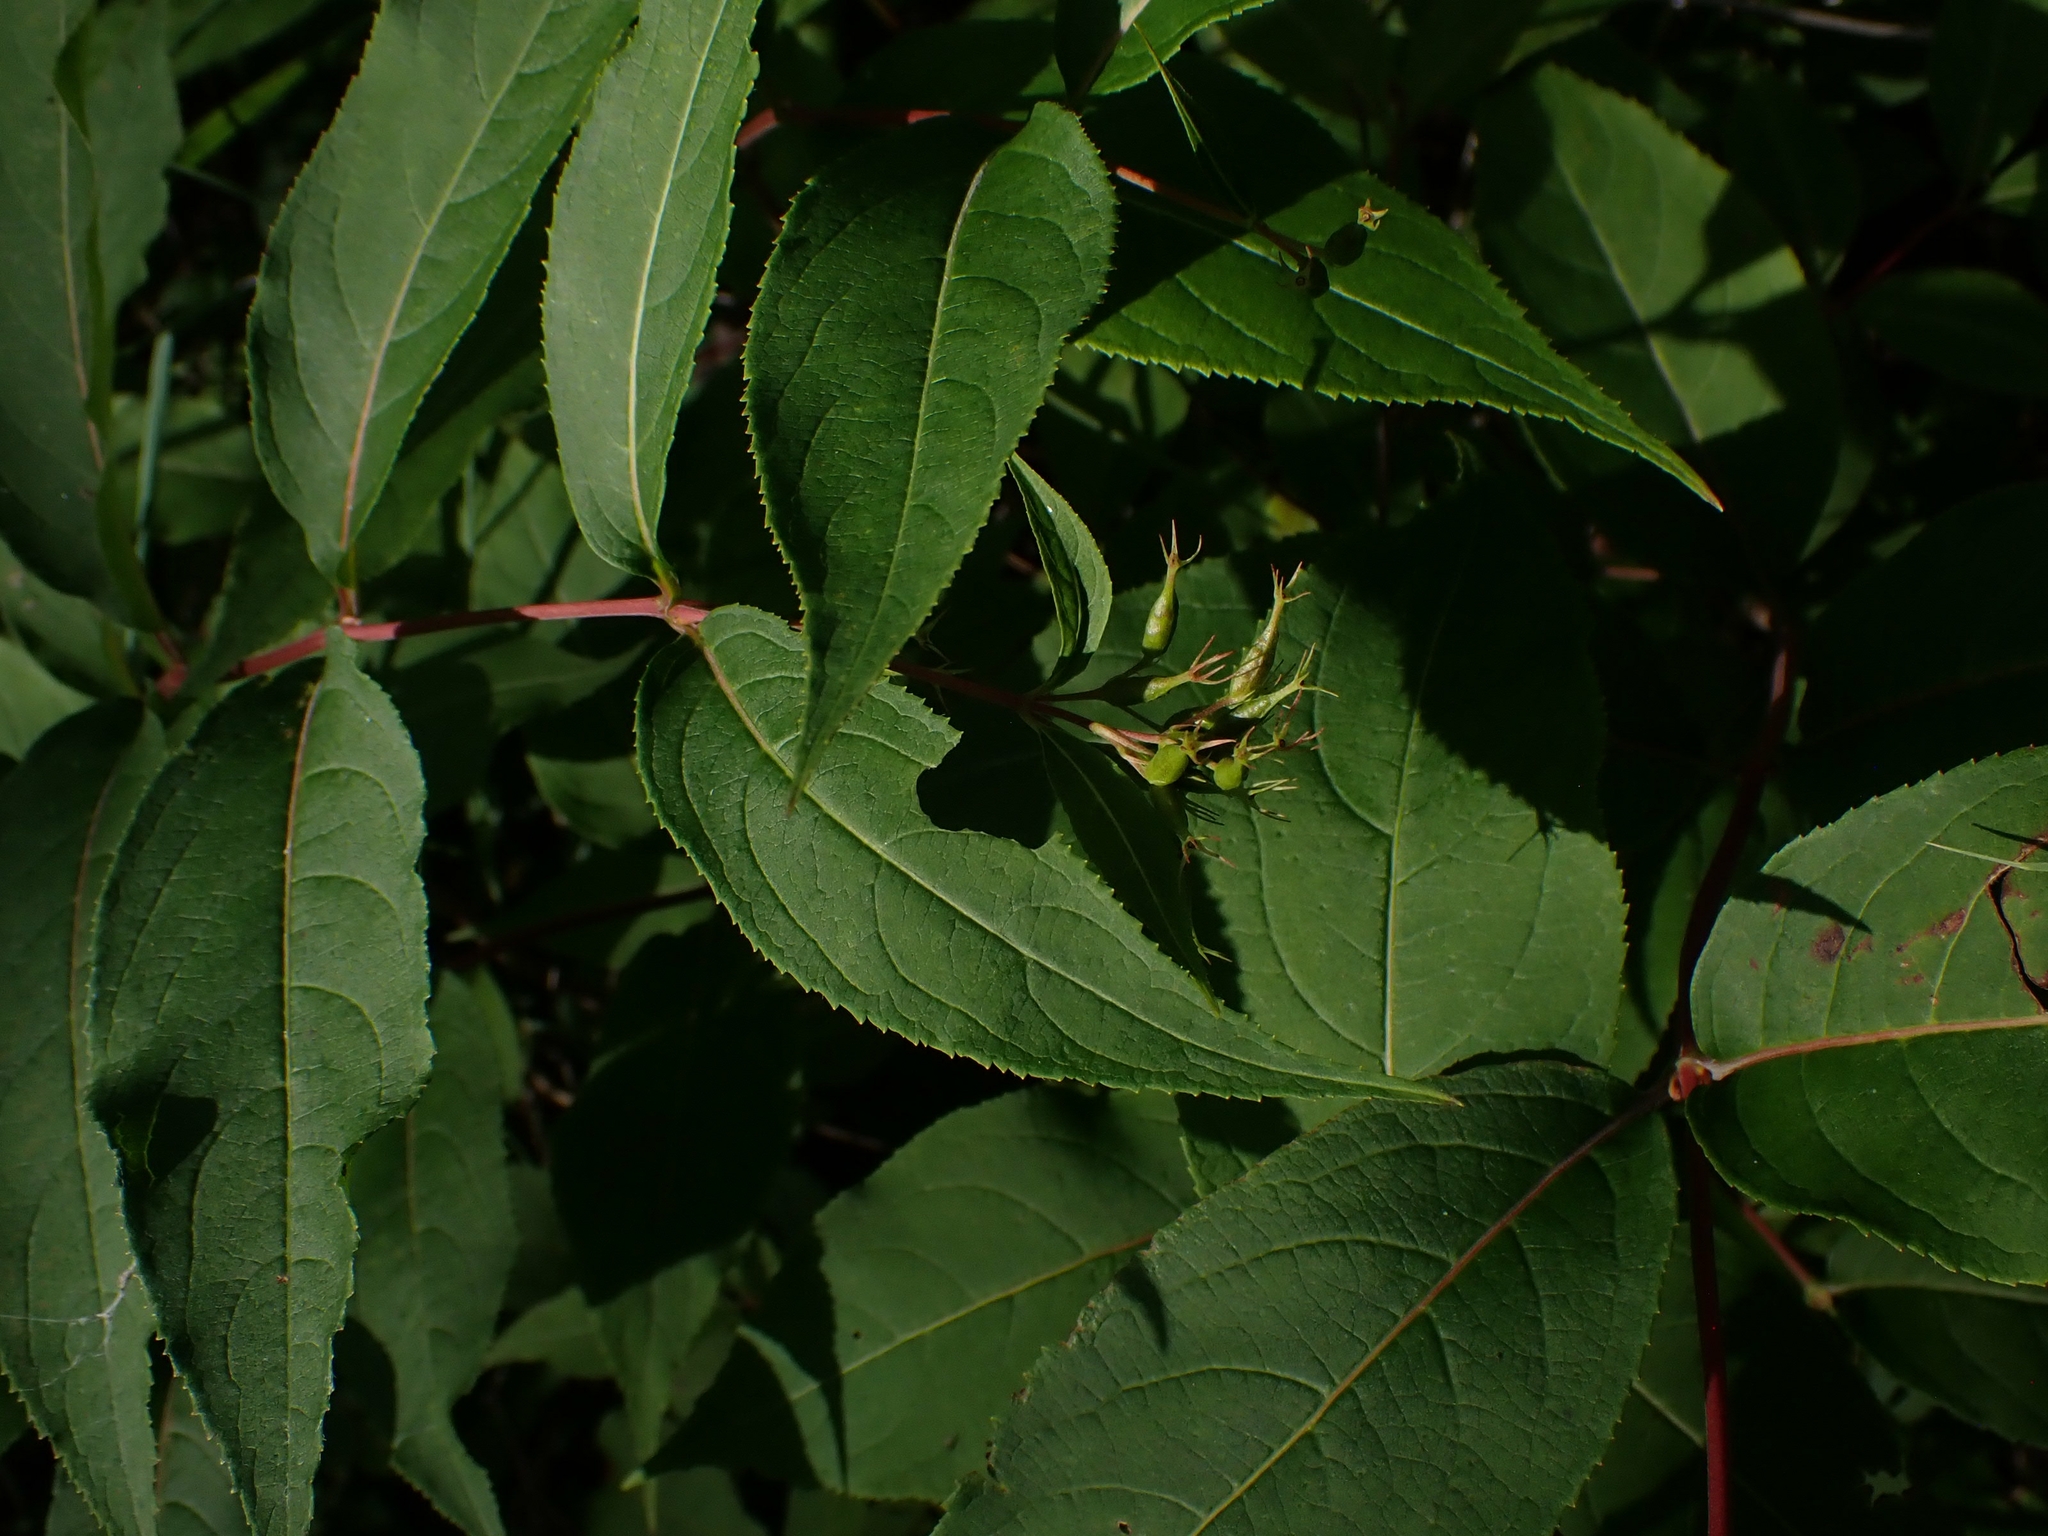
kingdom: Plantae
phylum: Tracheophyta
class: Magnoliopsida
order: Dipsacales
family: Caprifoliaceae
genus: Diervilla
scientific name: Diervilla lonicera
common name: Bush-honeysuckle
